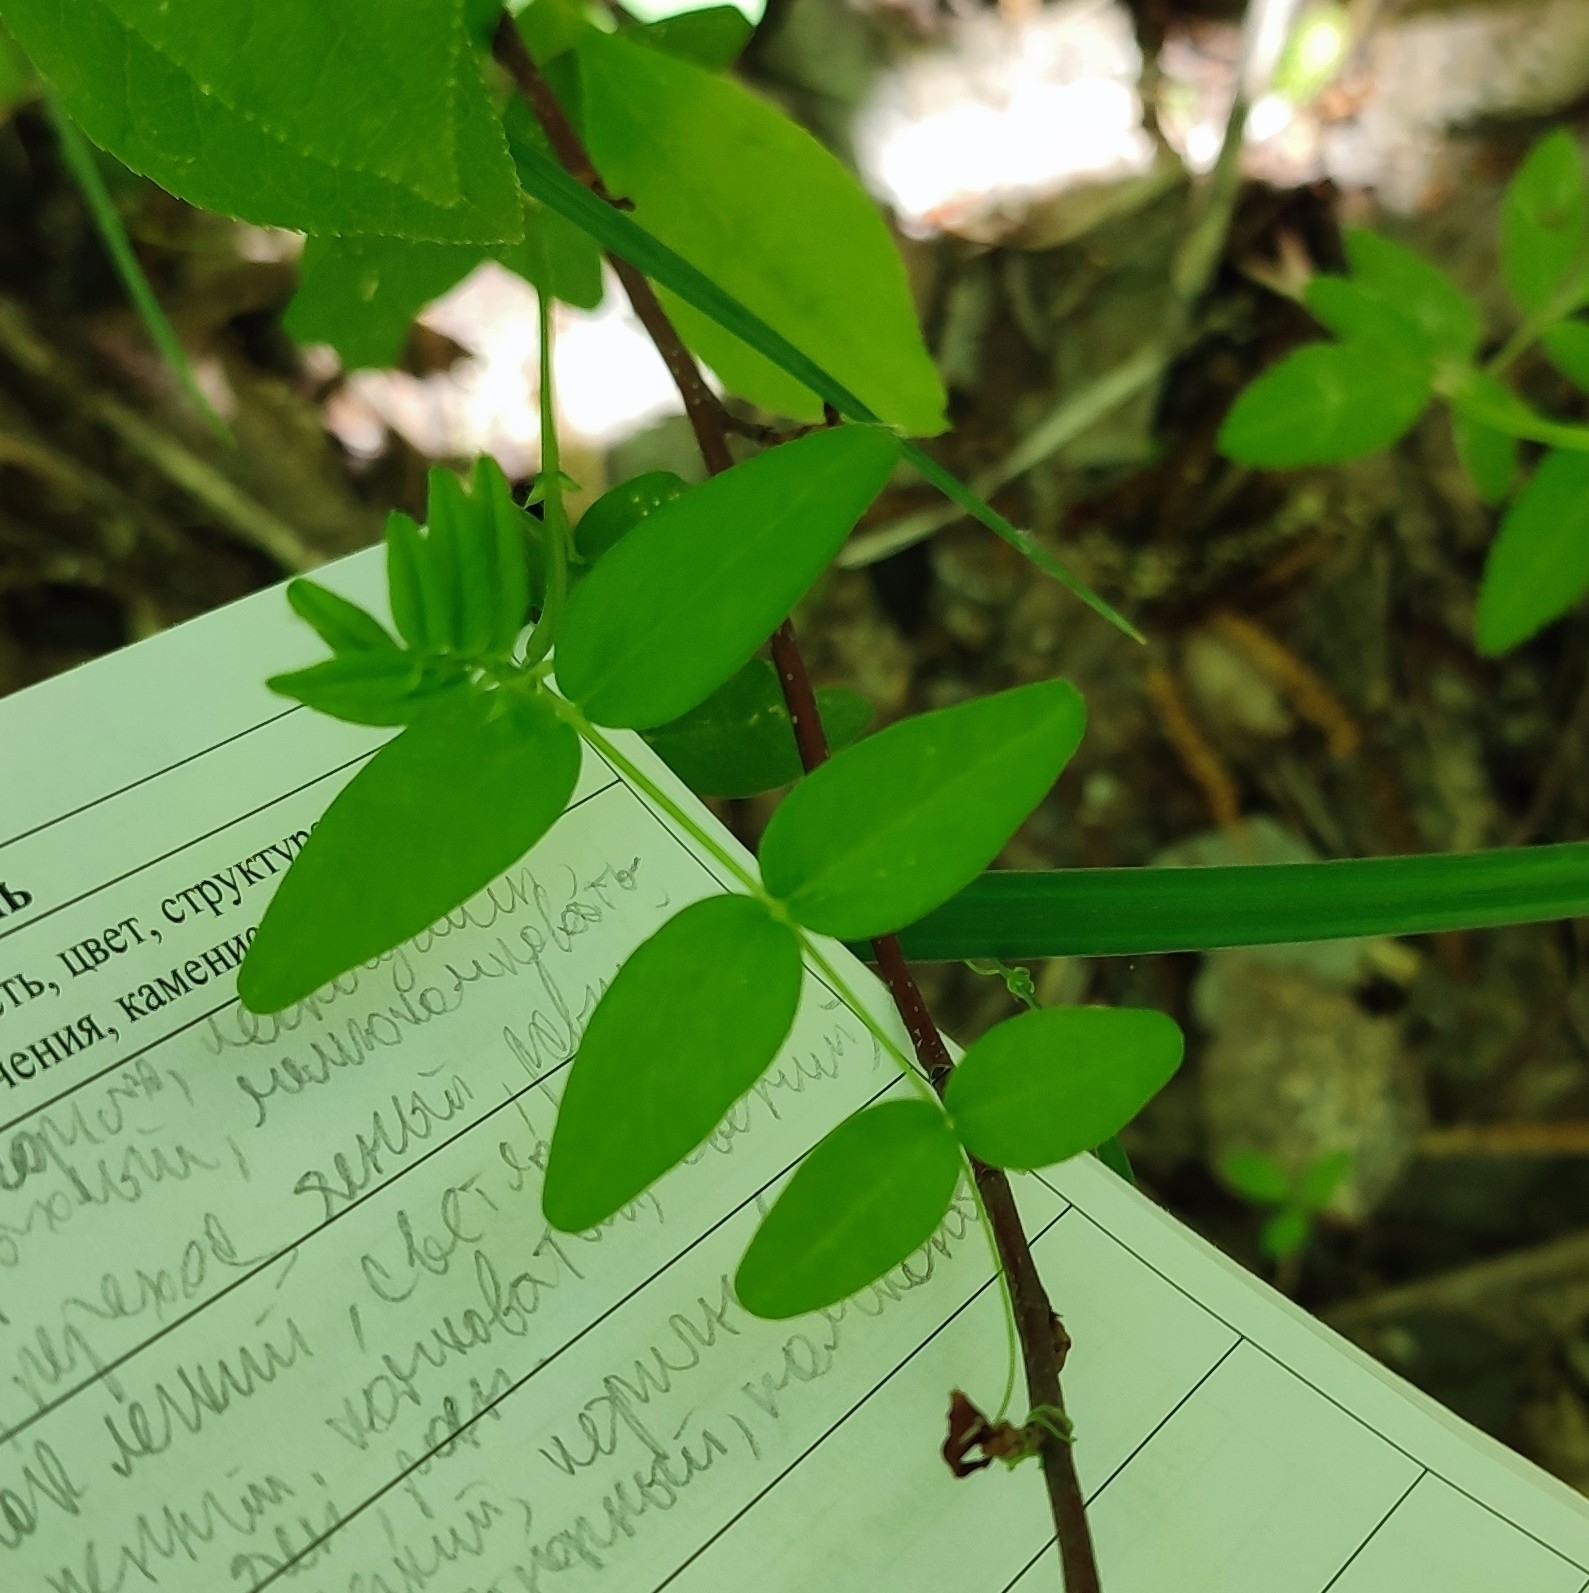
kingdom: Plantae
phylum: Tracheophyta
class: Magnoliopsida
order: Fabales
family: Fabaceae
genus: Vicia
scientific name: Vicia sepium
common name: Bush vetch
